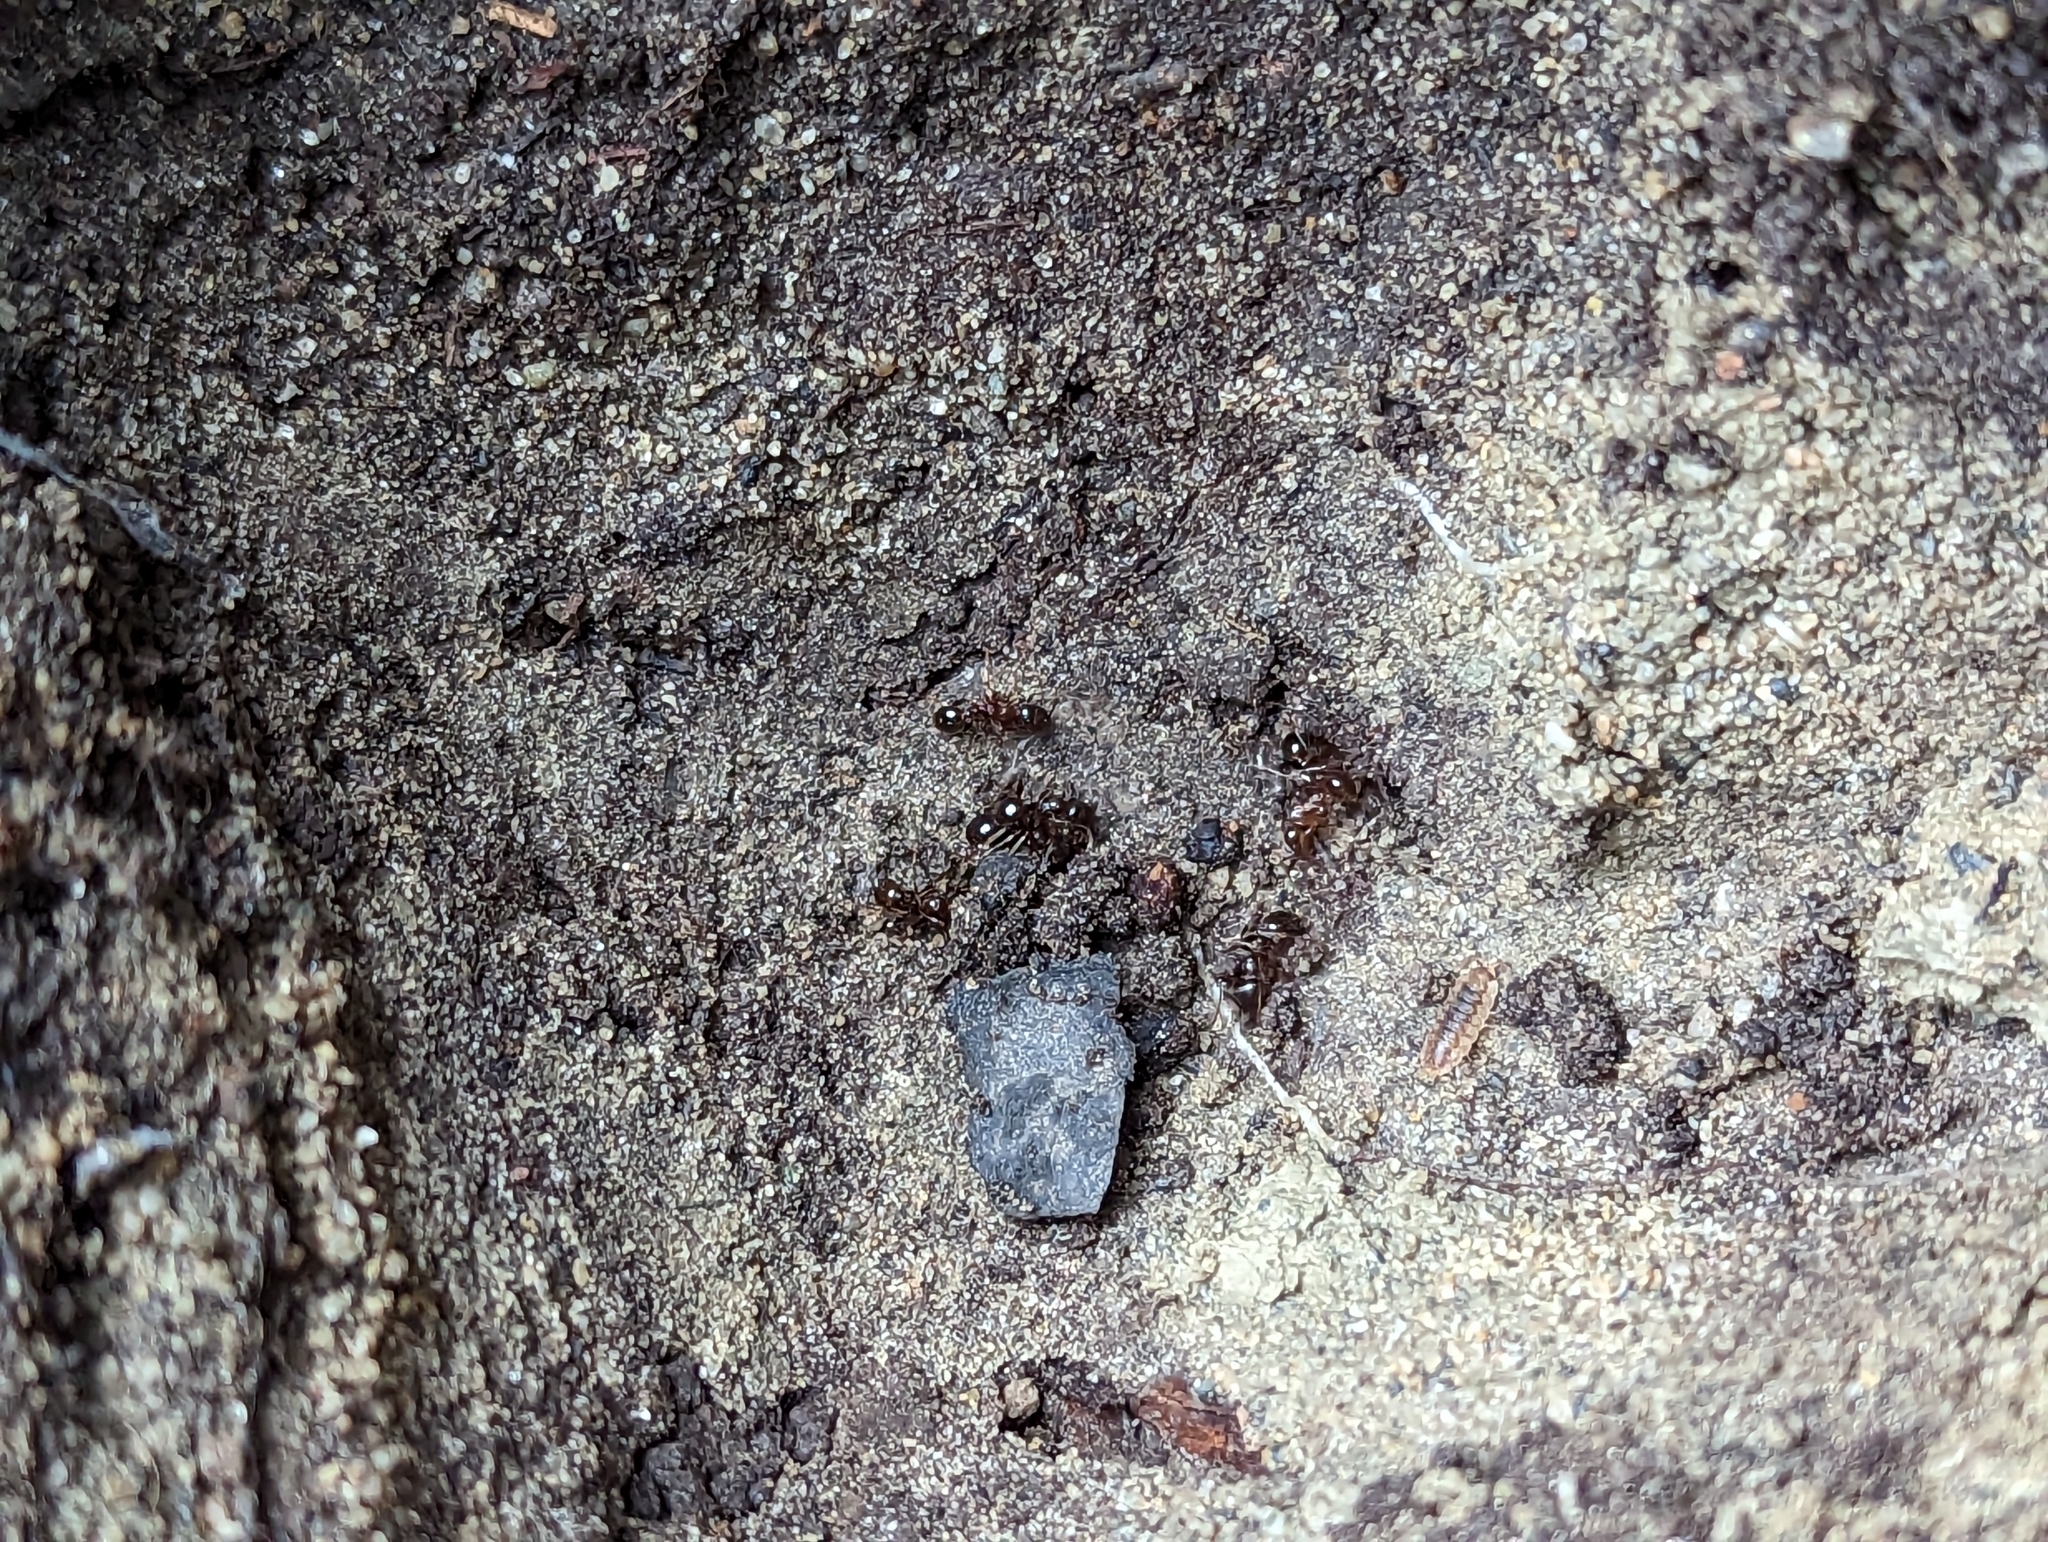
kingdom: Animalia
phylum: Arthropoda
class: Insecta
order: Hymenoptera
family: Formicidae
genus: Tetramorium
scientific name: Tetramorium immigrans
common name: Pavement ant
